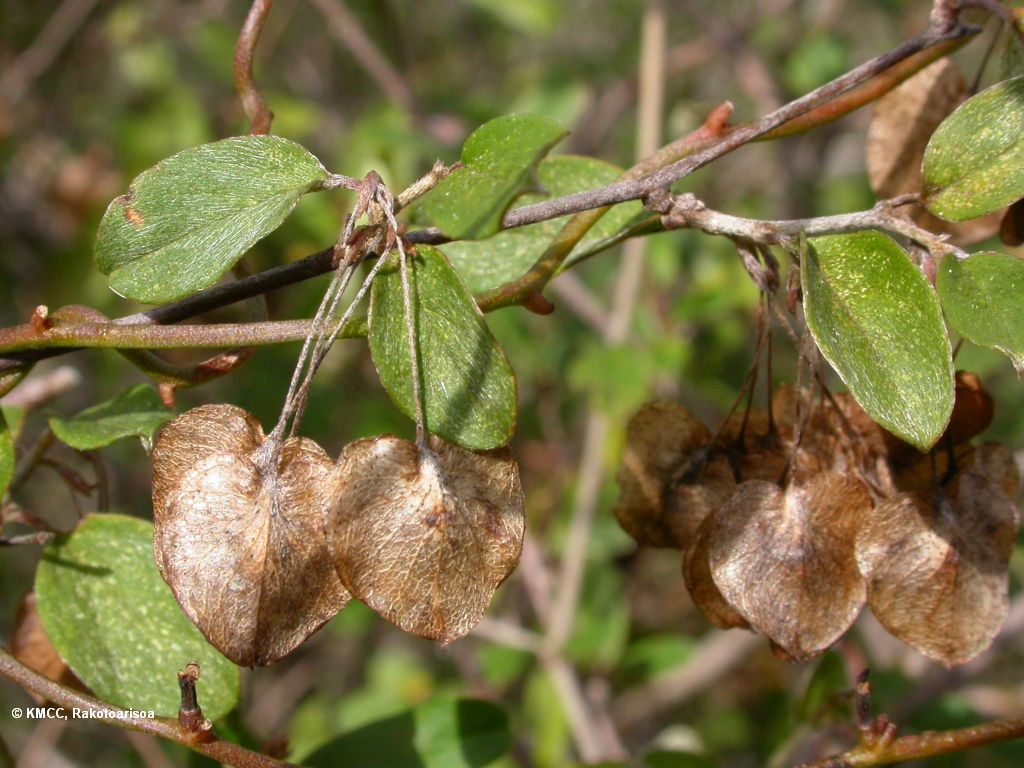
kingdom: Plantae
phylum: Tracheophyta
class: Magnoliopsida
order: Solanales
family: Convolvulaceae
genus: Hildebrandtia
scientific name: Hildebrandtia valo
